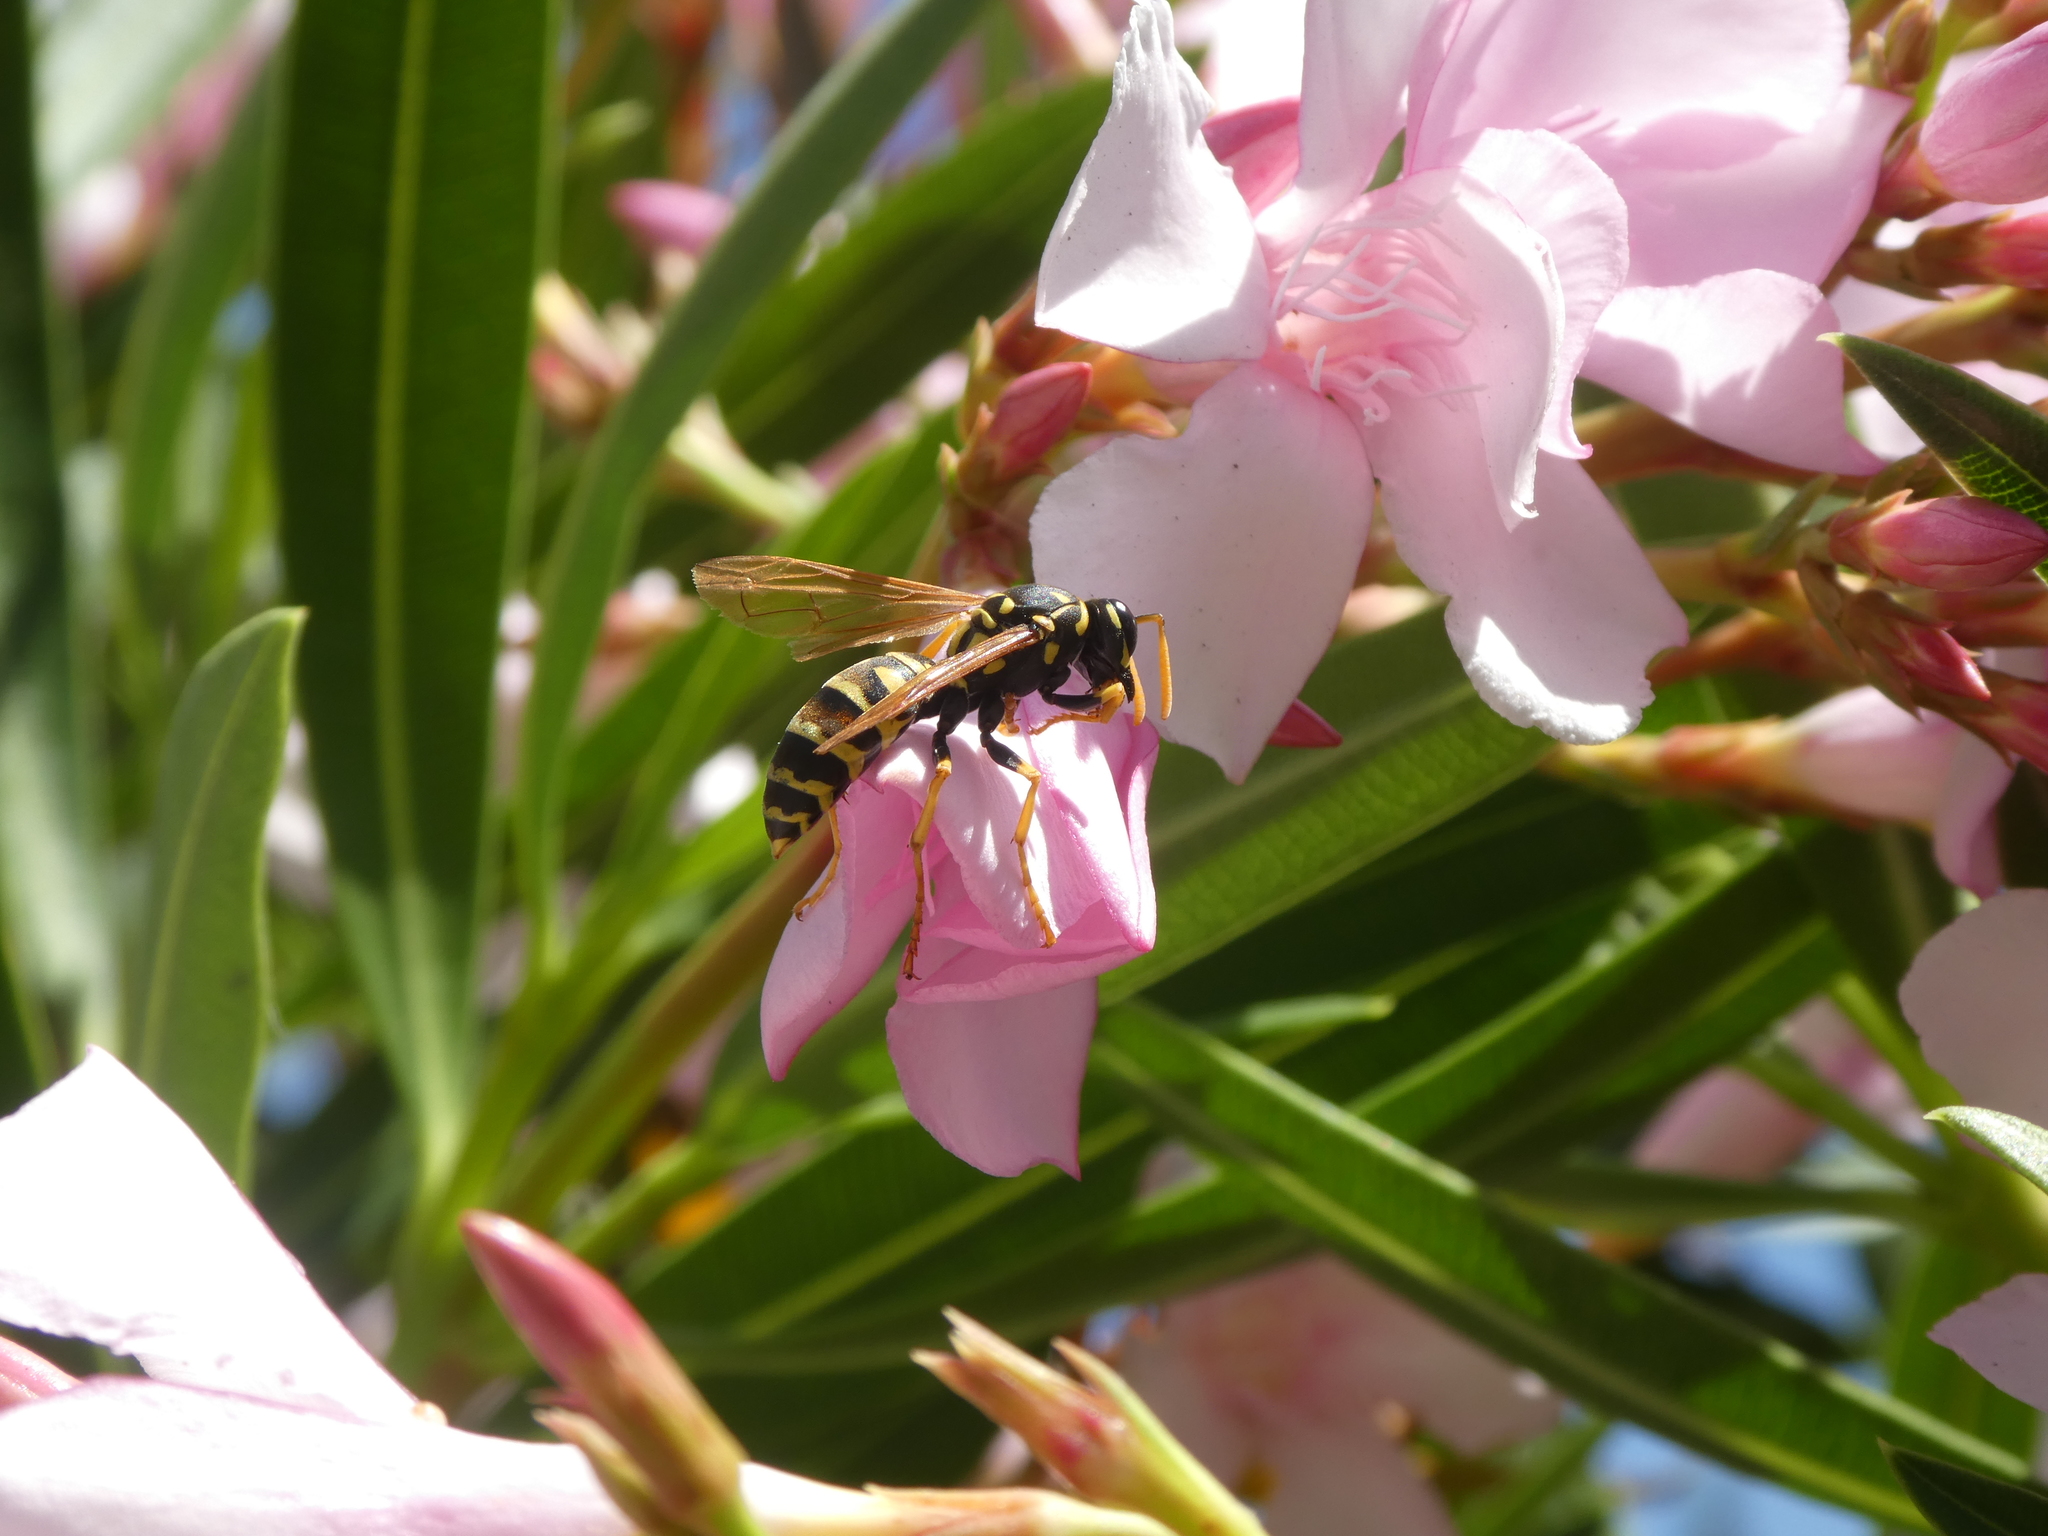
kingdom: Animalia
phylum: Arthropoda
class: Insecta
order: Hymenoptera
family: Eumenidae
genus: Polistes
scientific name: Polistes dominula
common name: Paper wasp
